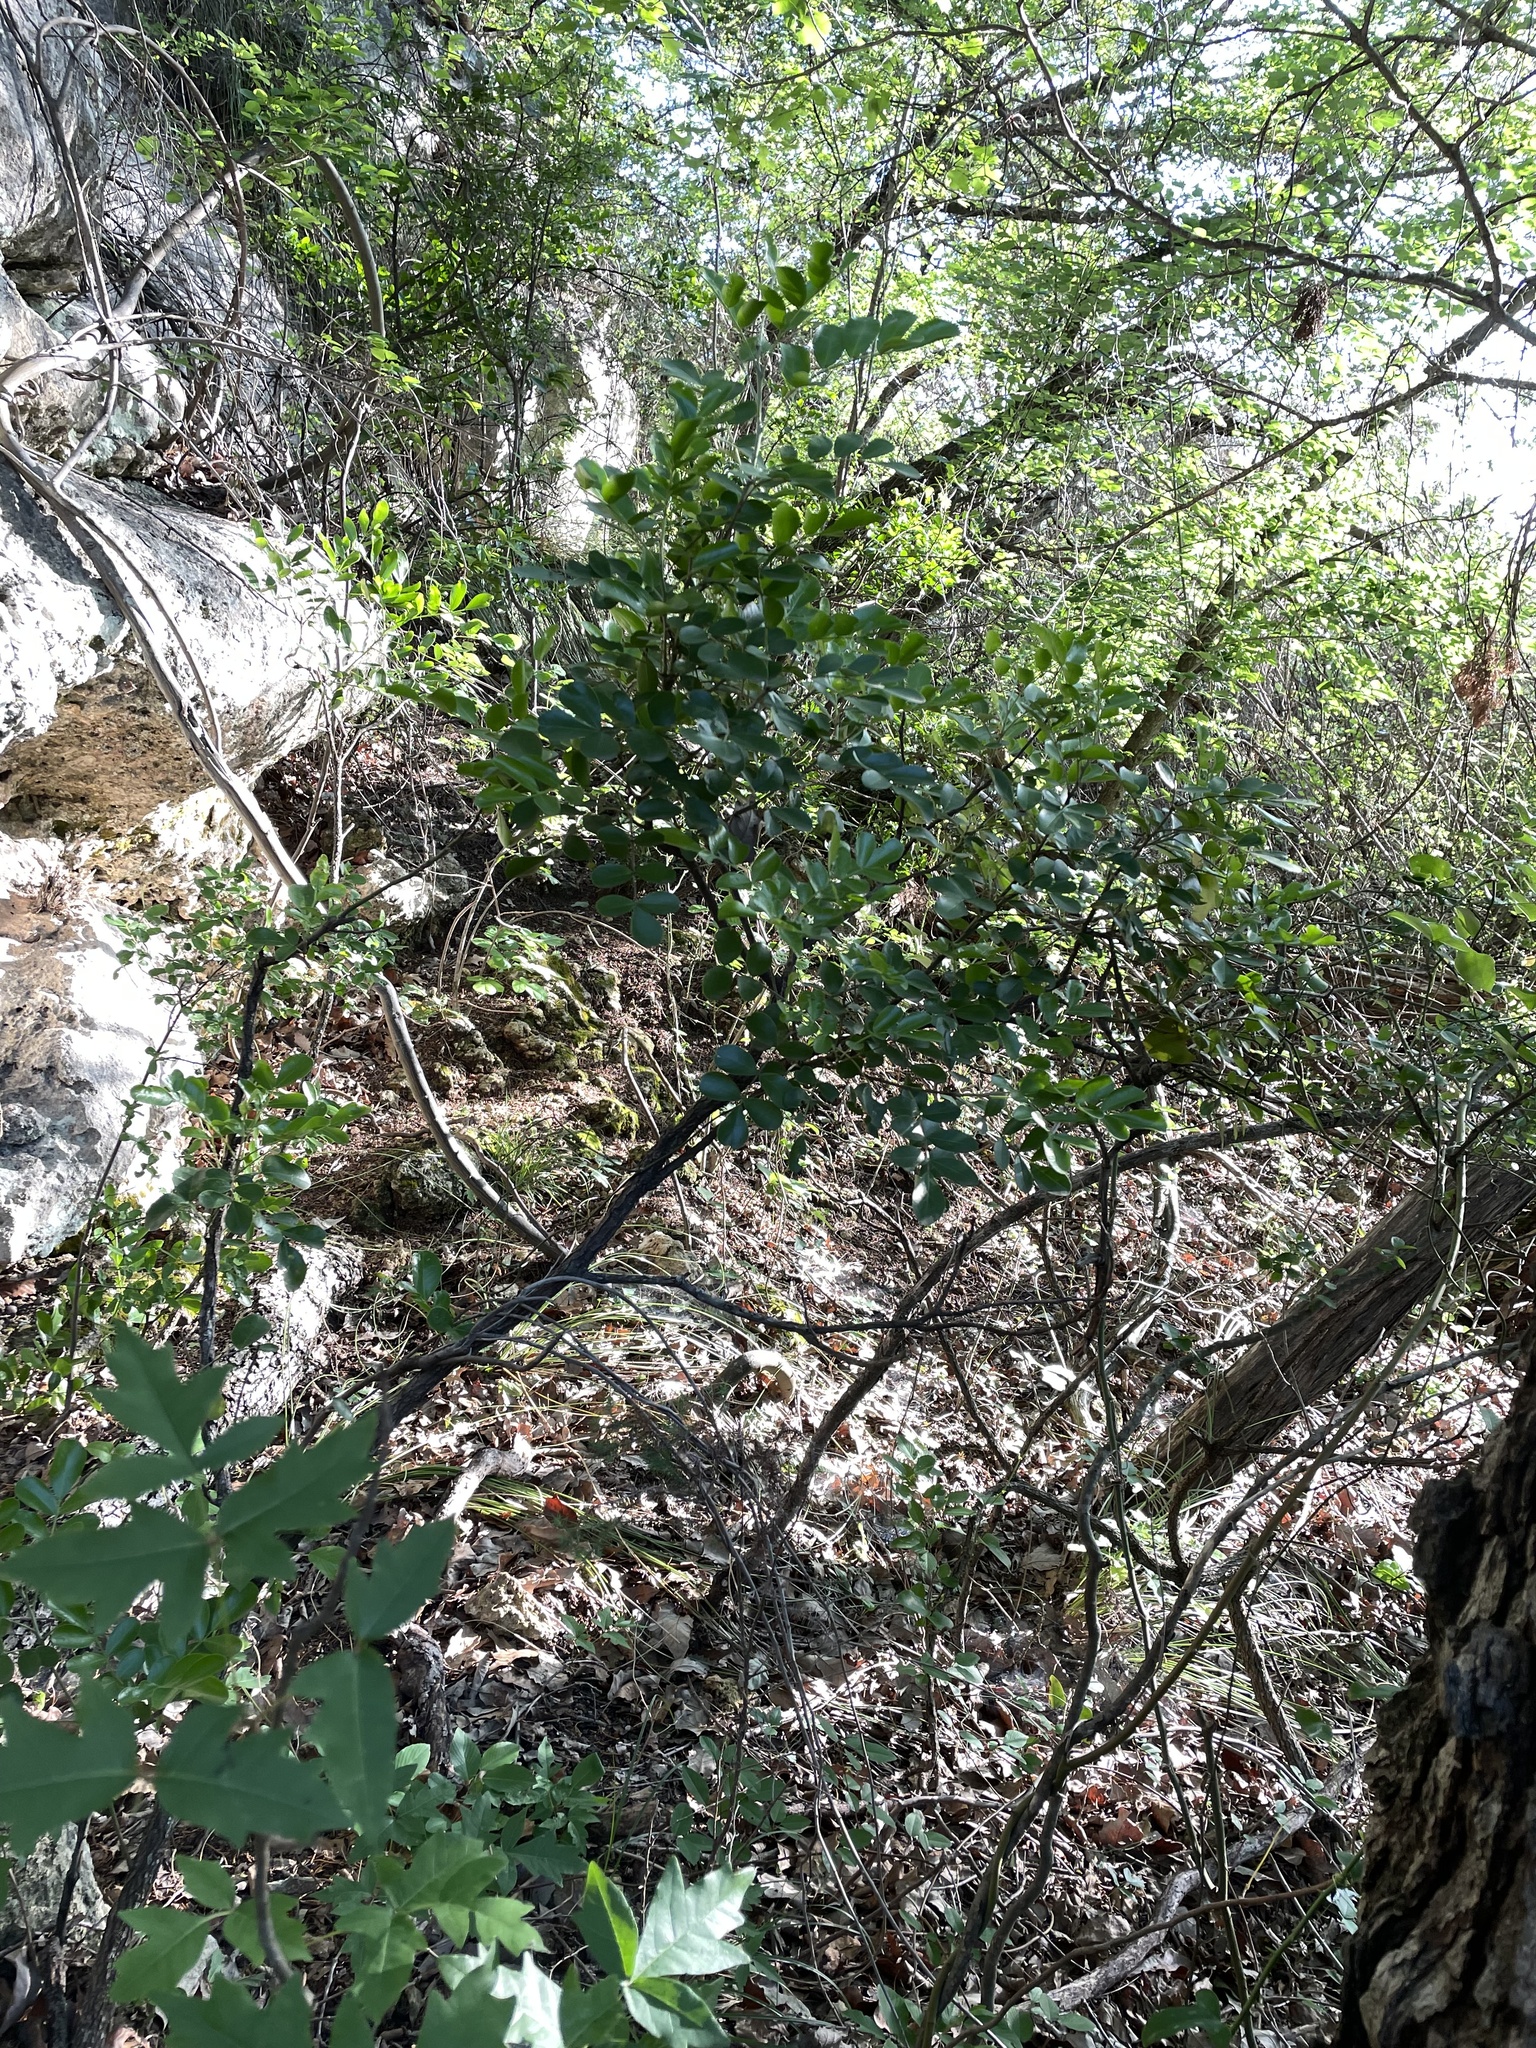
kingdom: Plantae
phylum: Tracheophyta
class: Magnoliopsida
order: Fabales
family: Fabaceae
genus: Dermatophyllum
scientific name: Dermatophyllum secundiflorum
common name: Texas-mountain-laurel
